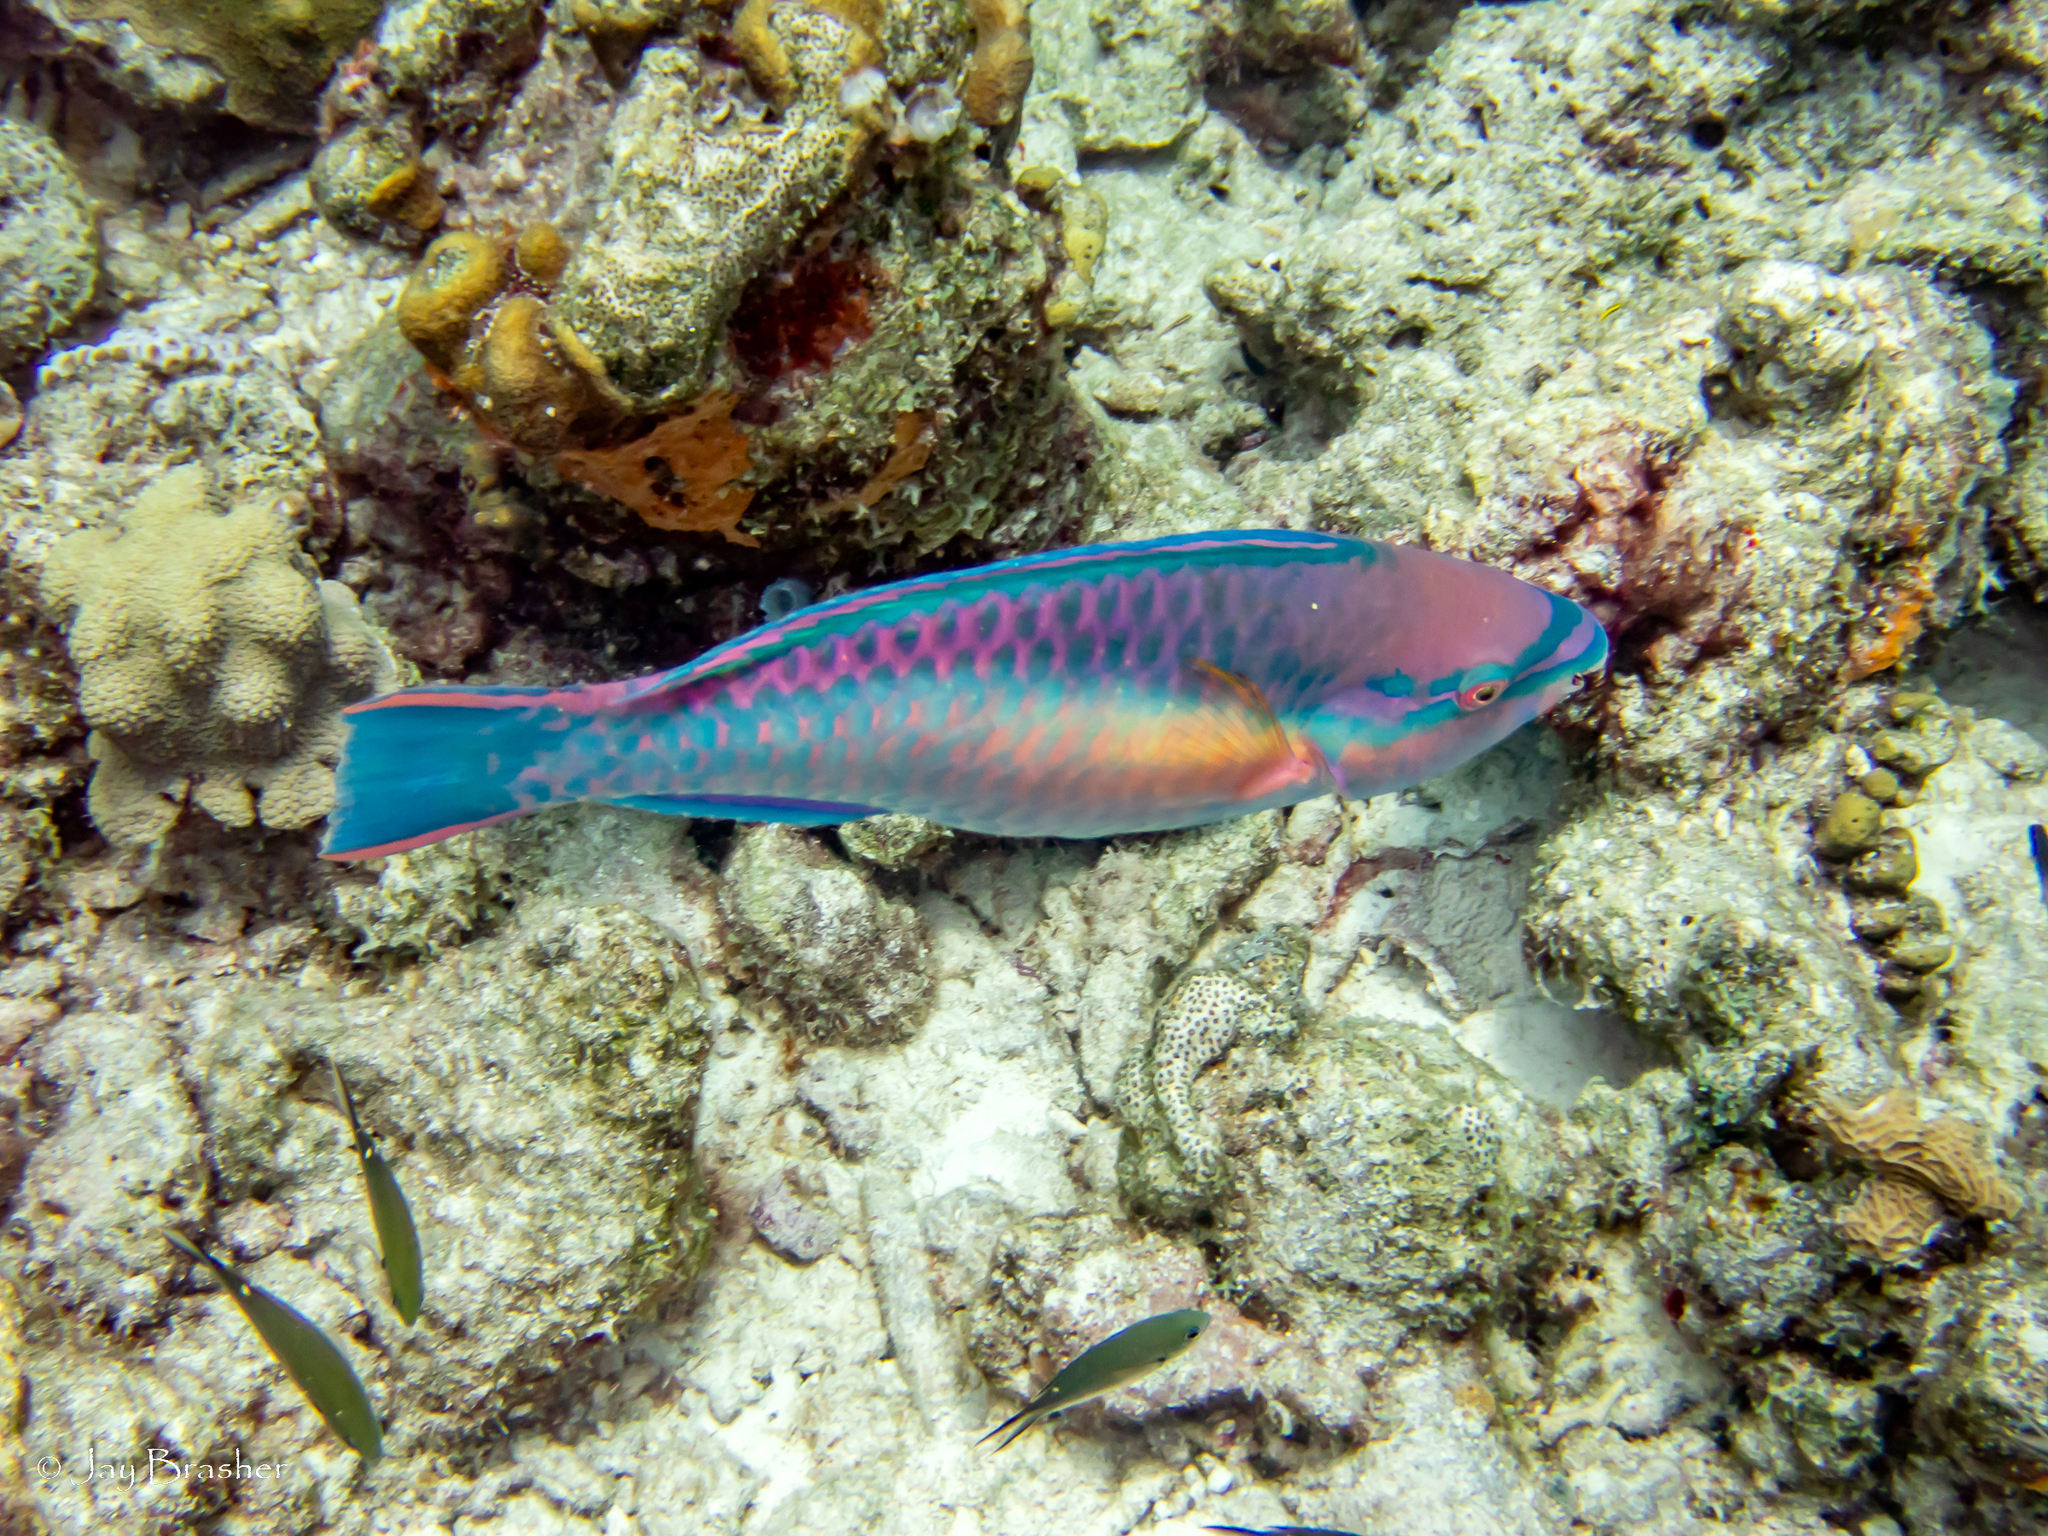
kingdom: Animalia
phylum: Chordata
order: Perciformes
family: Pomacentridae
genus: Chromis
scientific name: Chromis multilineata
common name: Brown chromis
